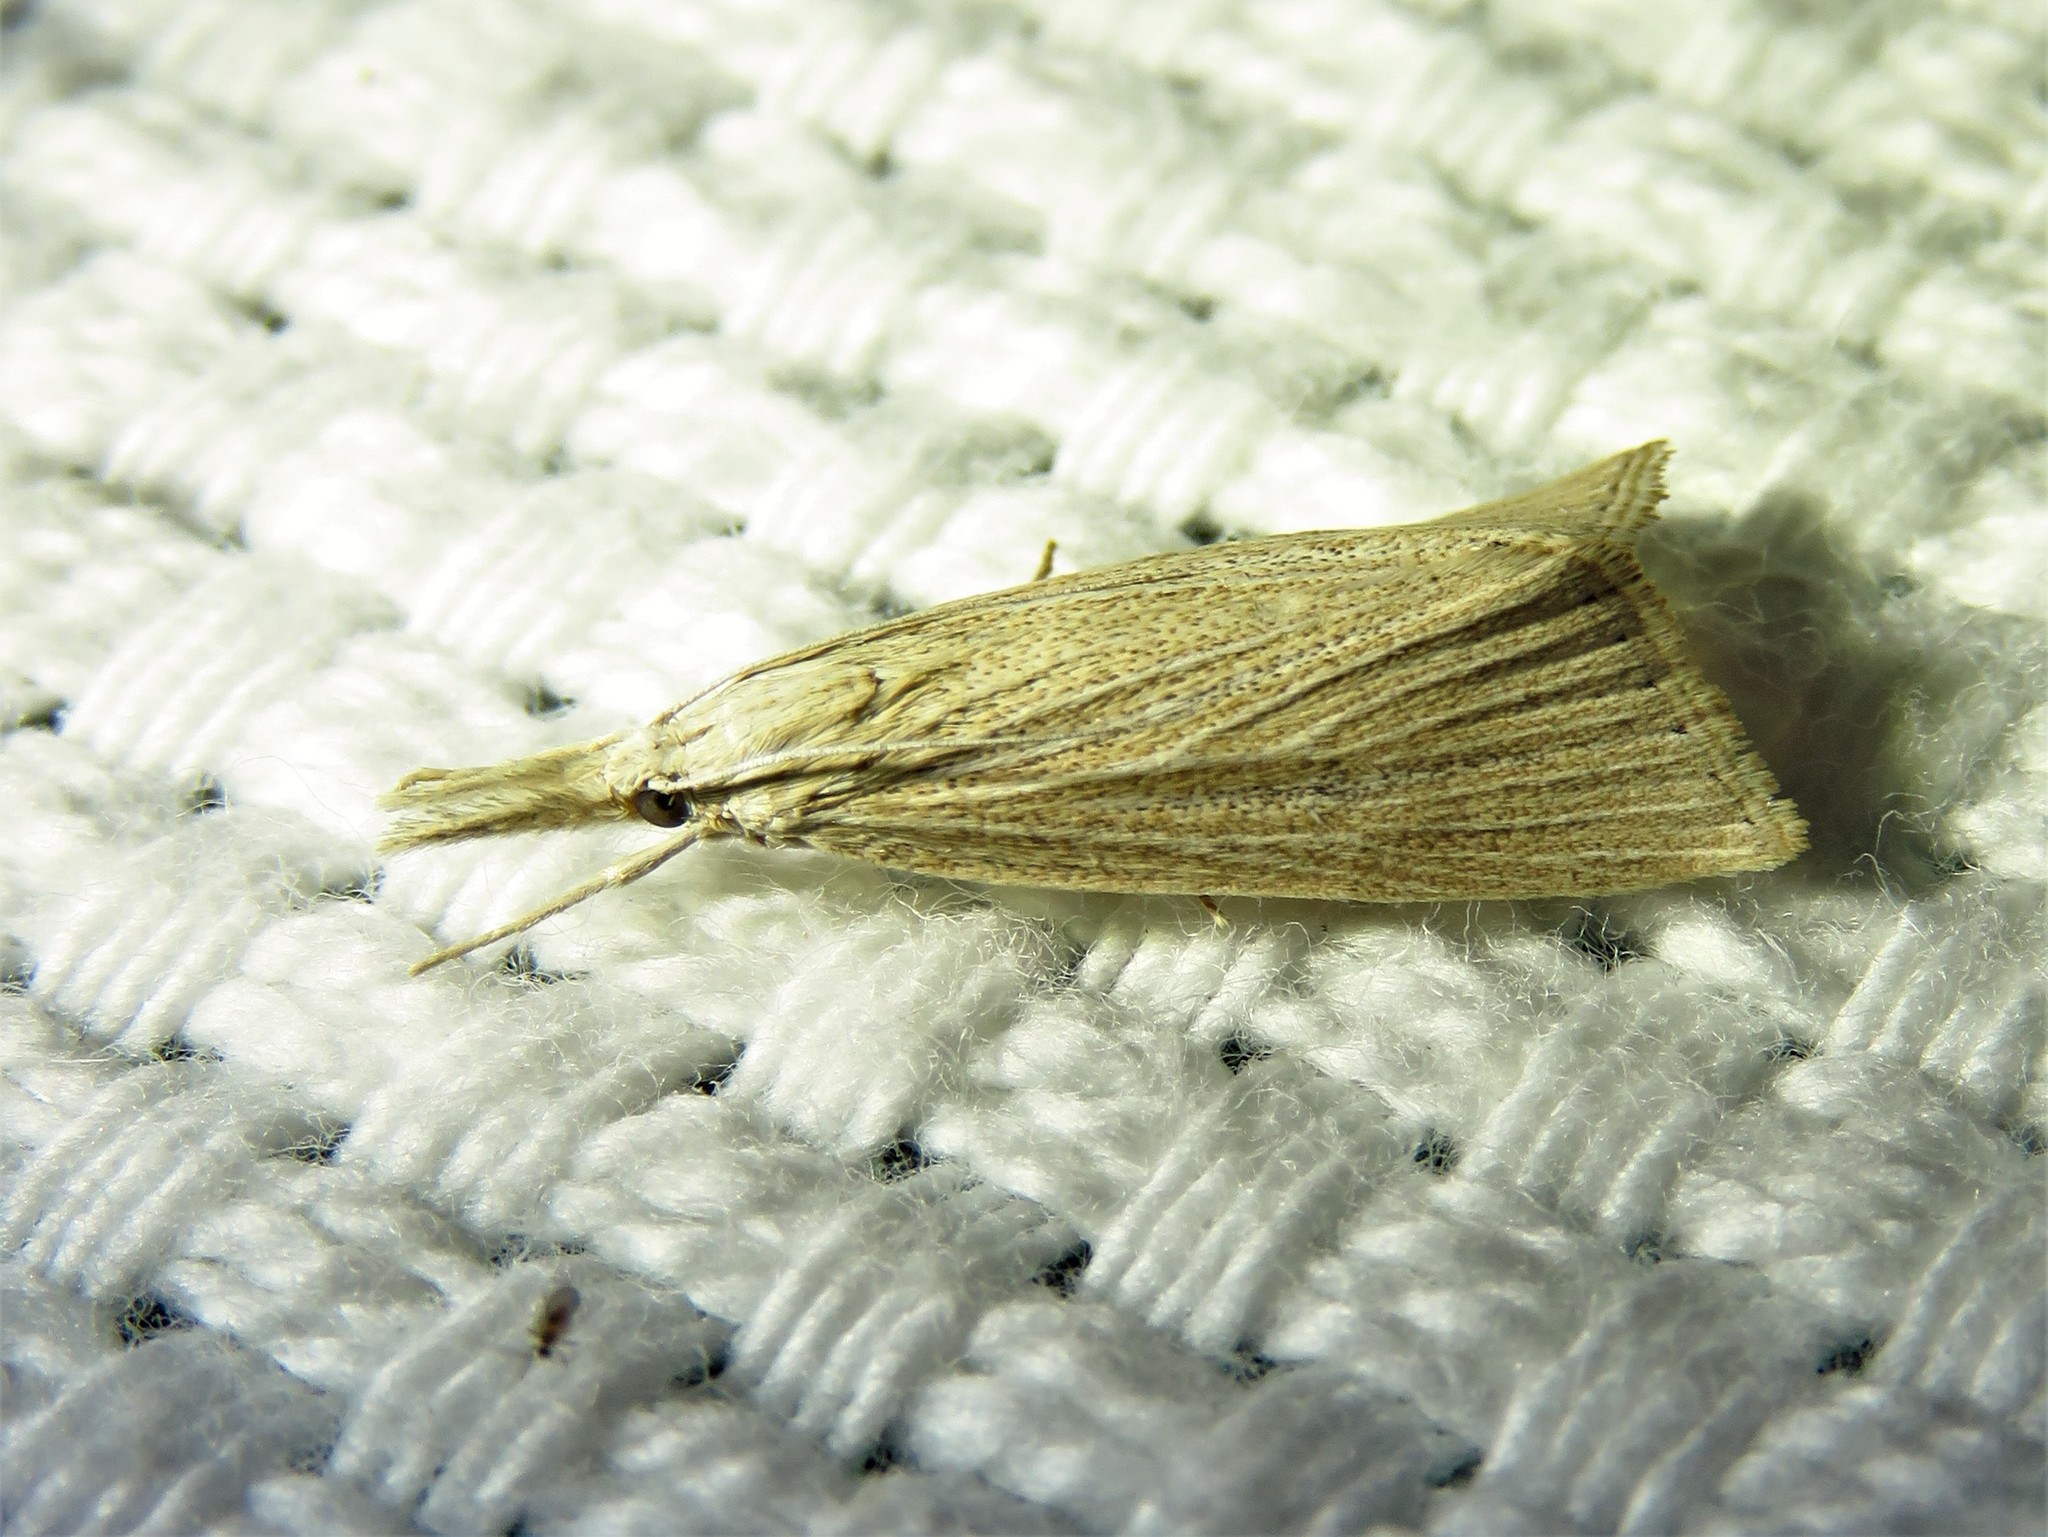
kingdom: Animalia
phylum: Arthropoda
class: Insecta
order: Lepidoptera
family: Crambidae
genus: Eoreuma
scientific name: Eoreuma densellus
